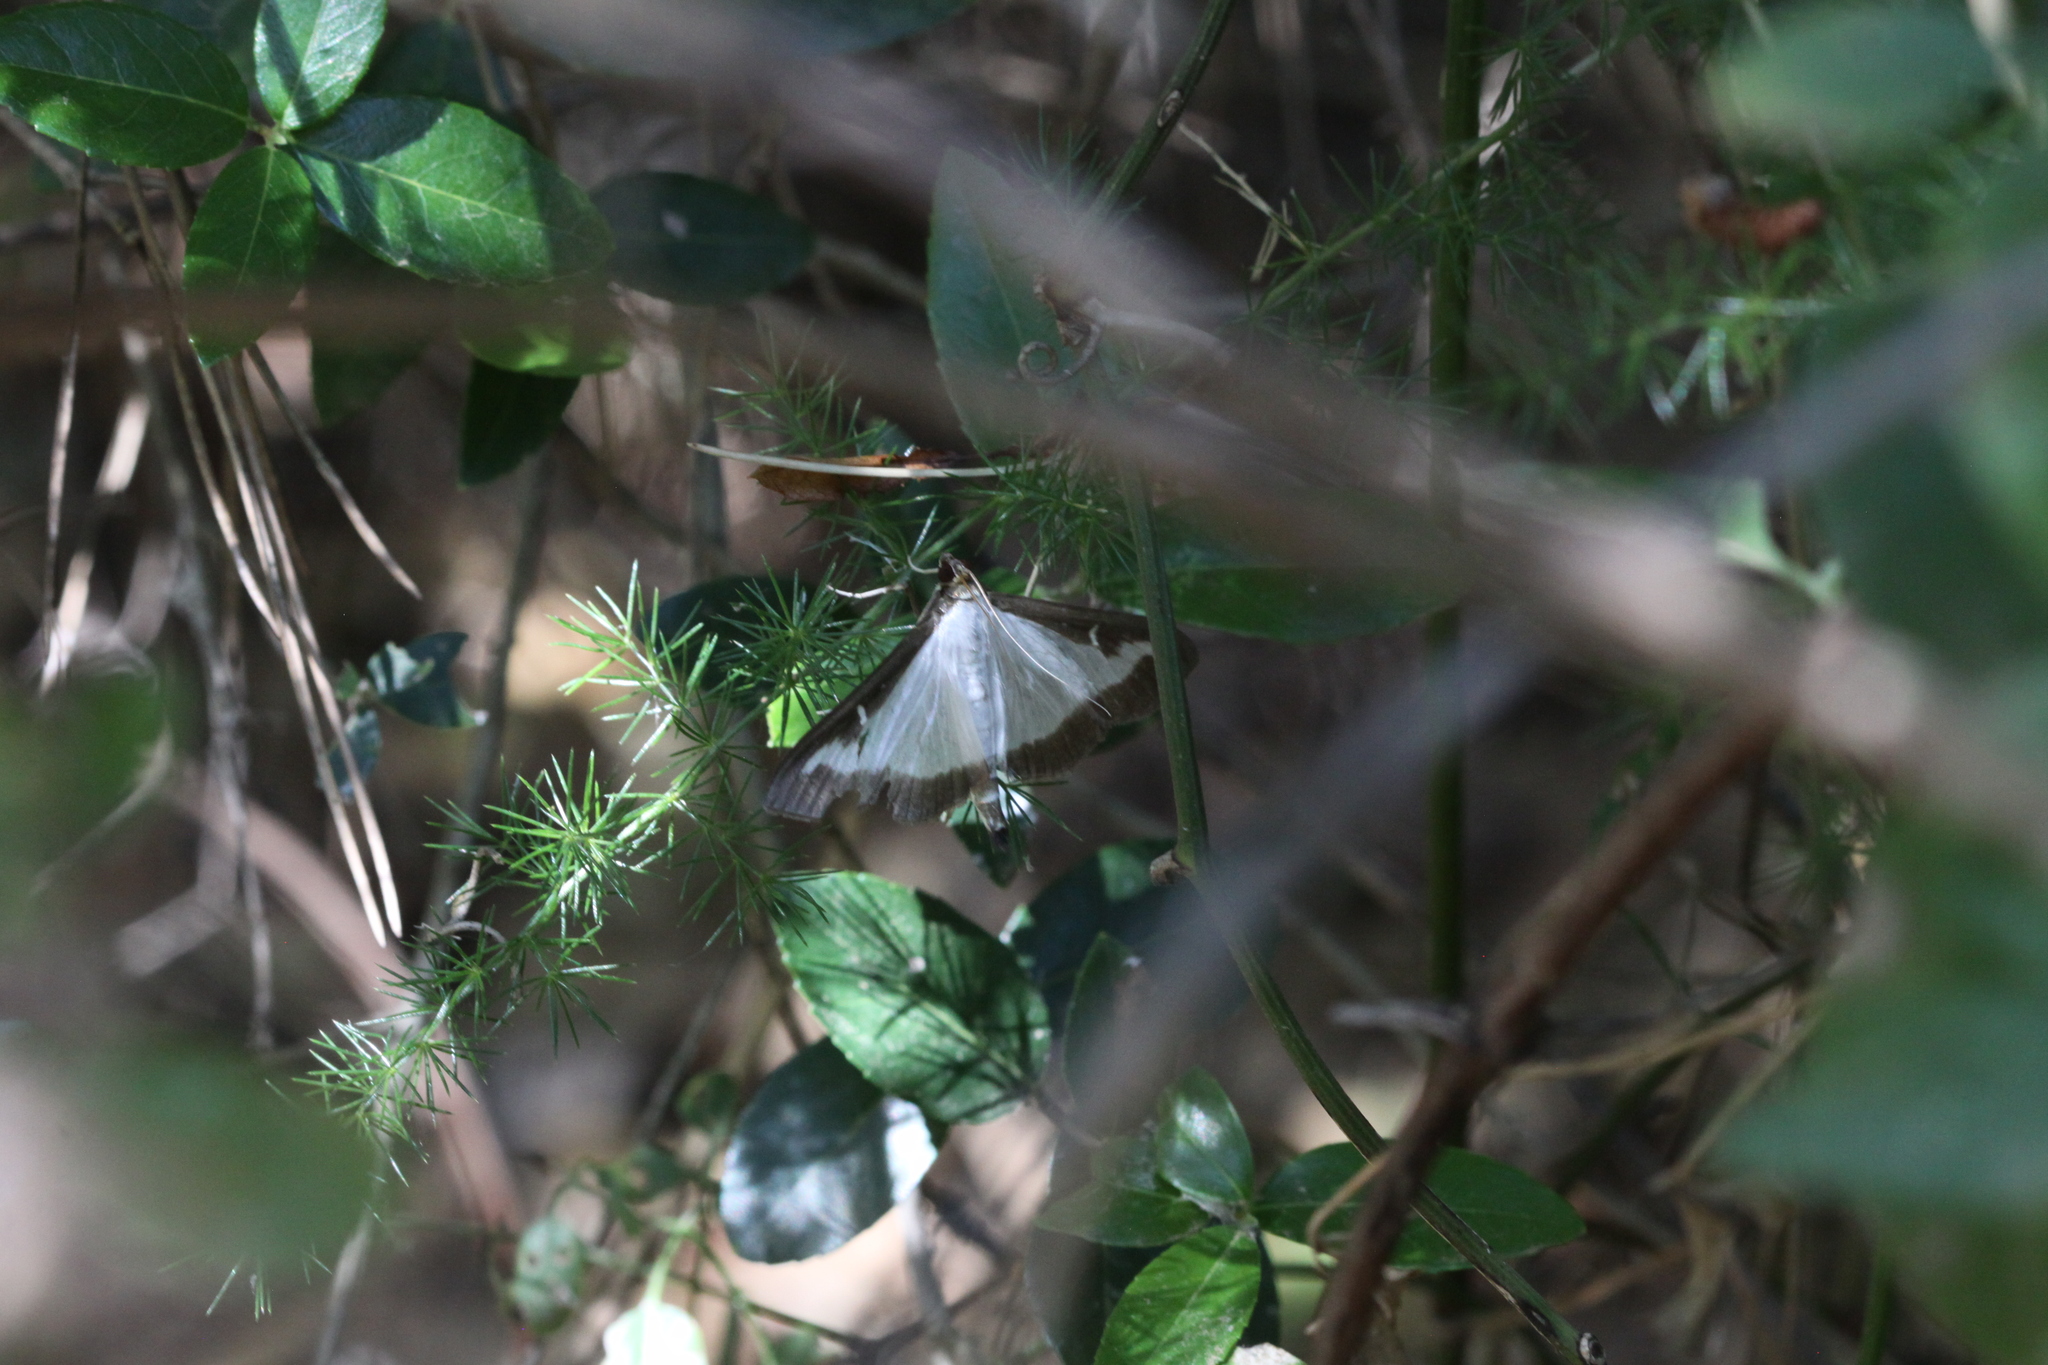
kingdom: Animalia
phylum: Arthropoda
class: Insecta
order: Lepidoptera
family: Crambidae
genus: Cydalima
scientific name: Cydalima perspectalis
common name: Box tree moth
